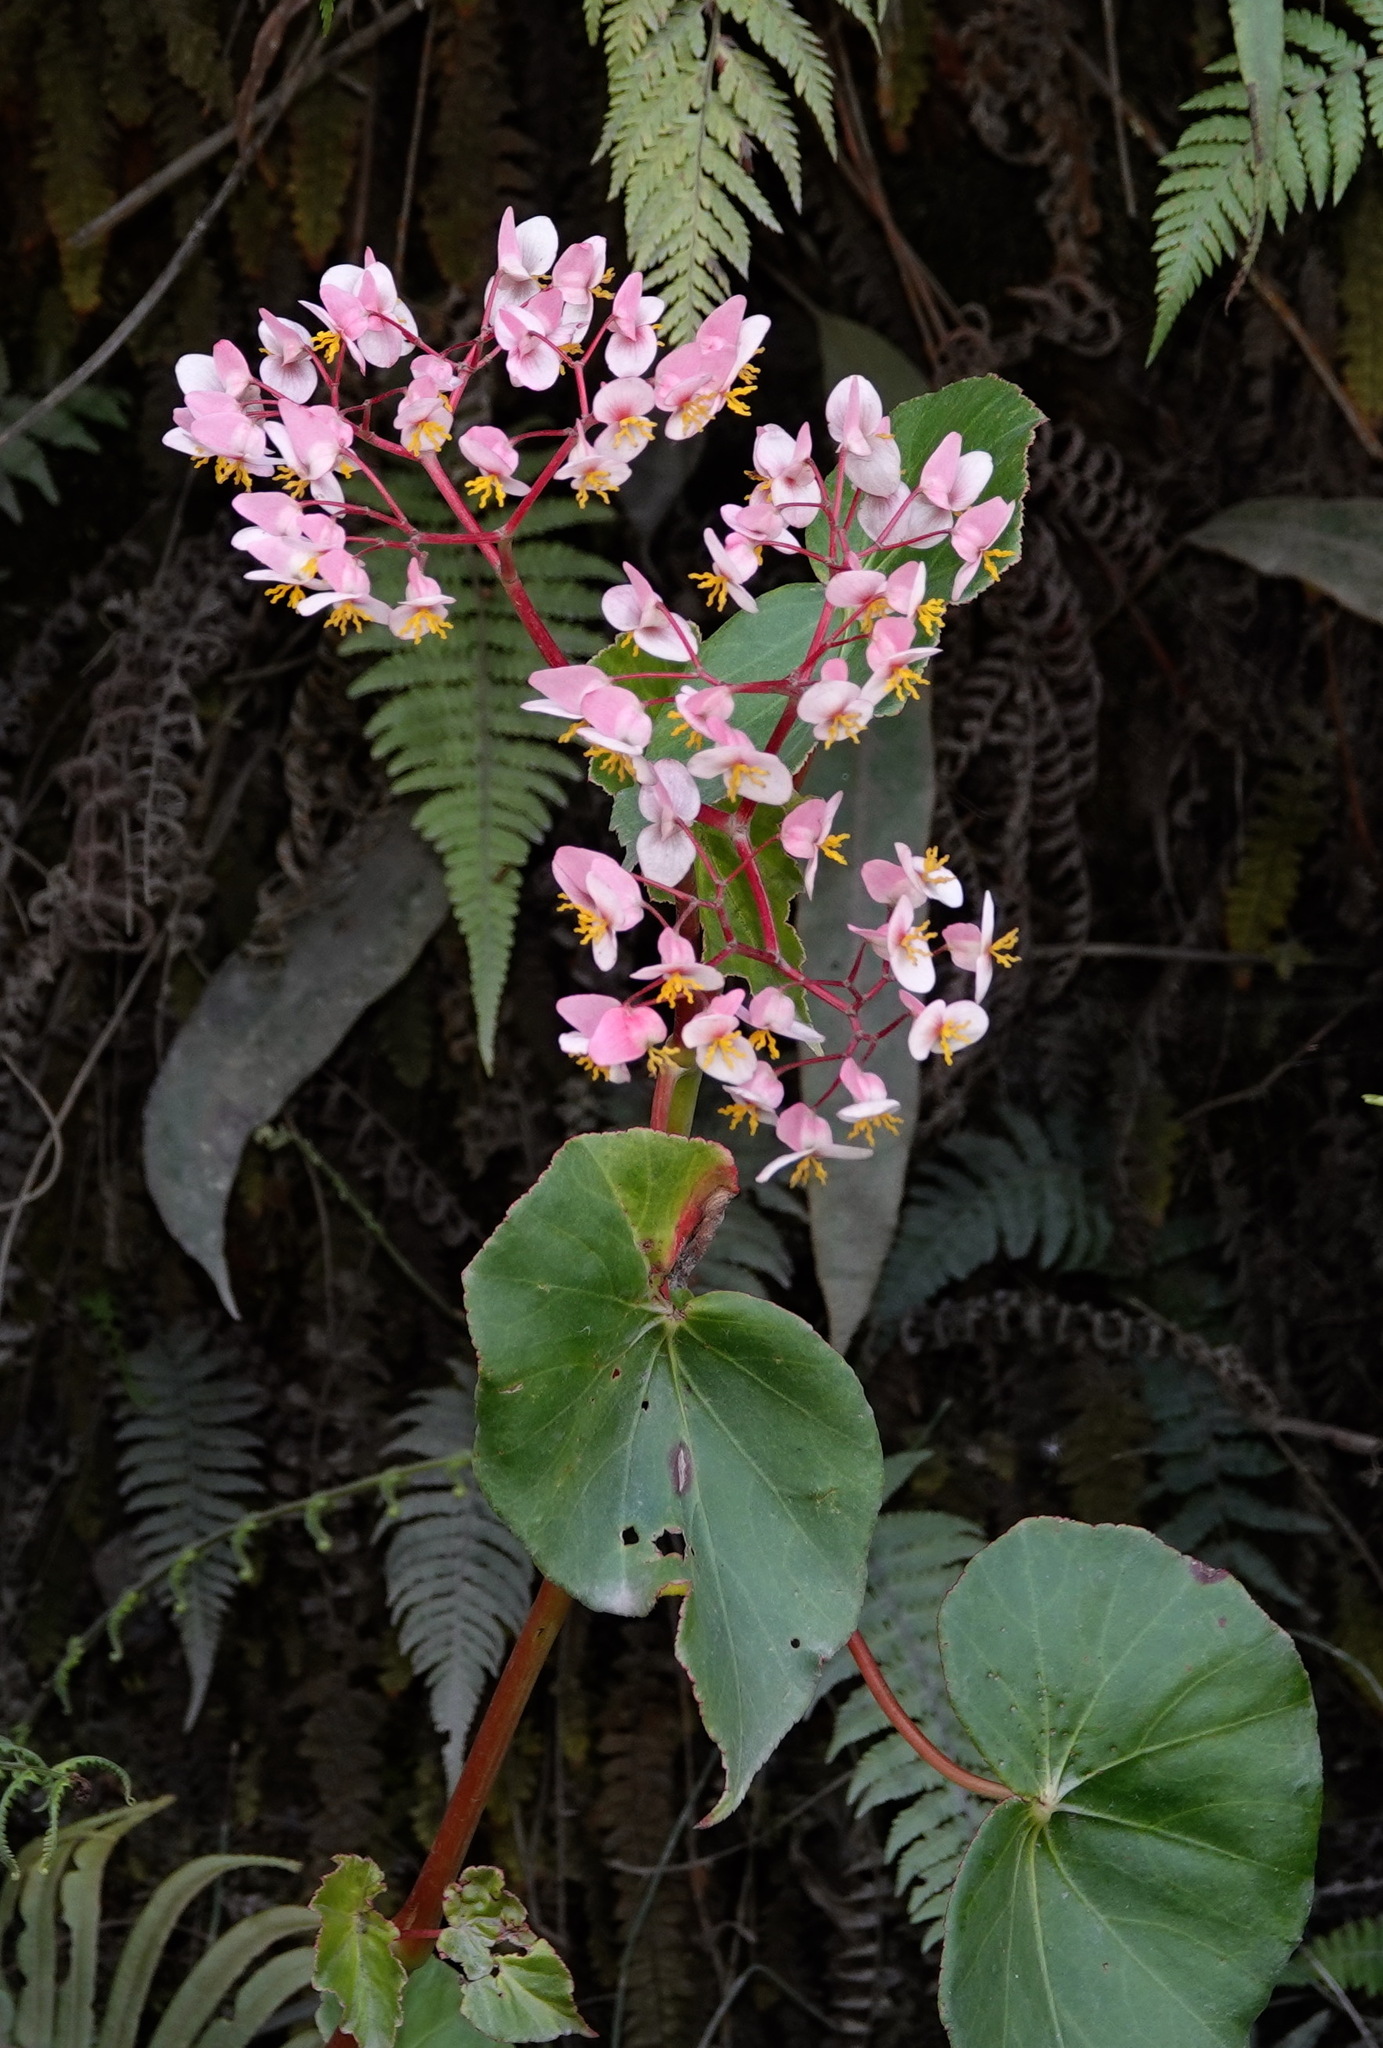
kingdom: Plantae
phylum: Tracheophyta
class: Magnoliopsida
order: Cucurbitales
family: Begoniaceae
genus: Begonia
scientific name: Begonia bracteosa
